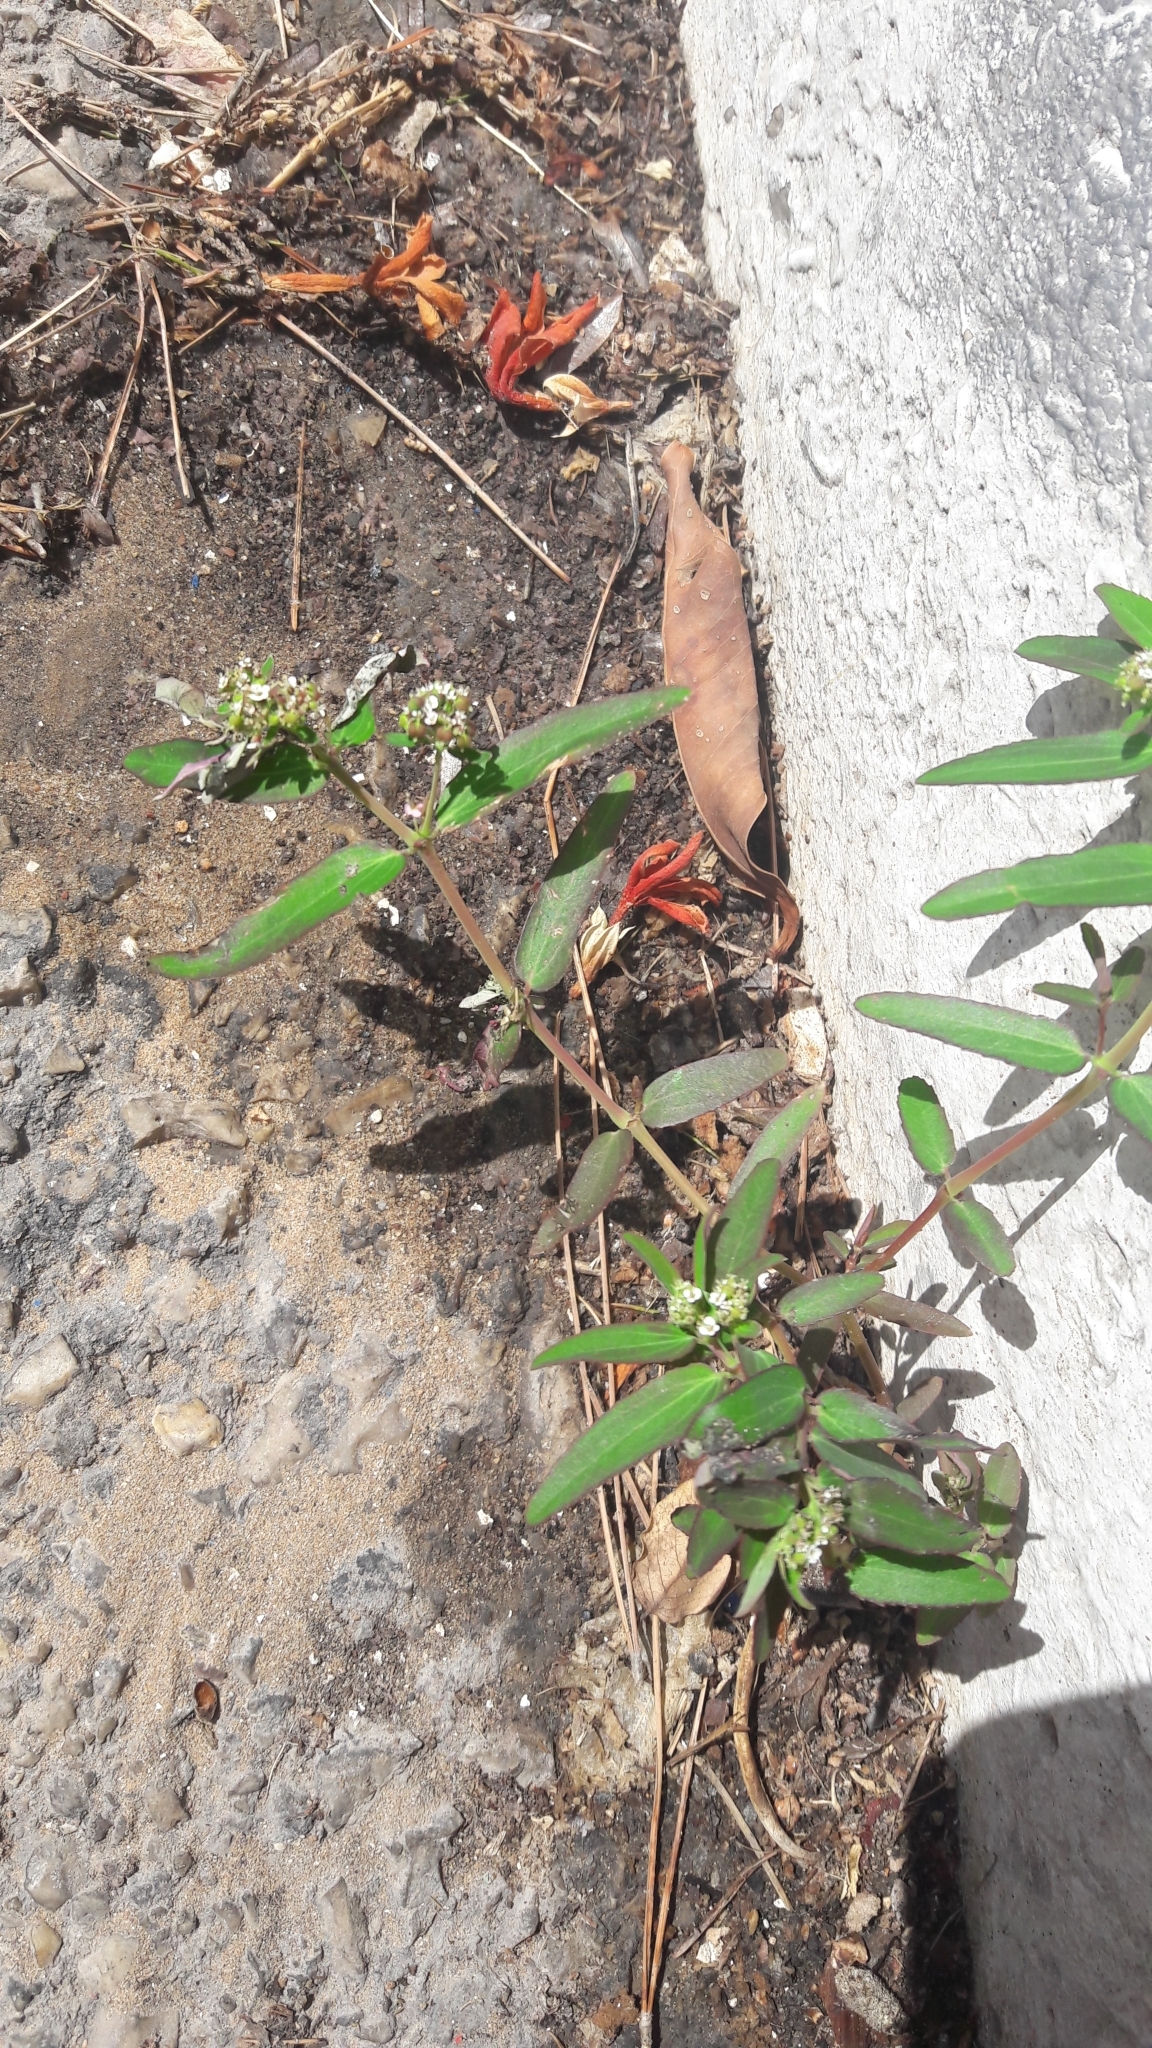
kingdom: Plantae
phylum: Tracheophyta
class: Magnoliopsida
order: Malpighiales
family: Euphorbiaceae
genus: Euphorbia
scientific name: Euphorbia hypericifolia
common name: Graceful sandmat
